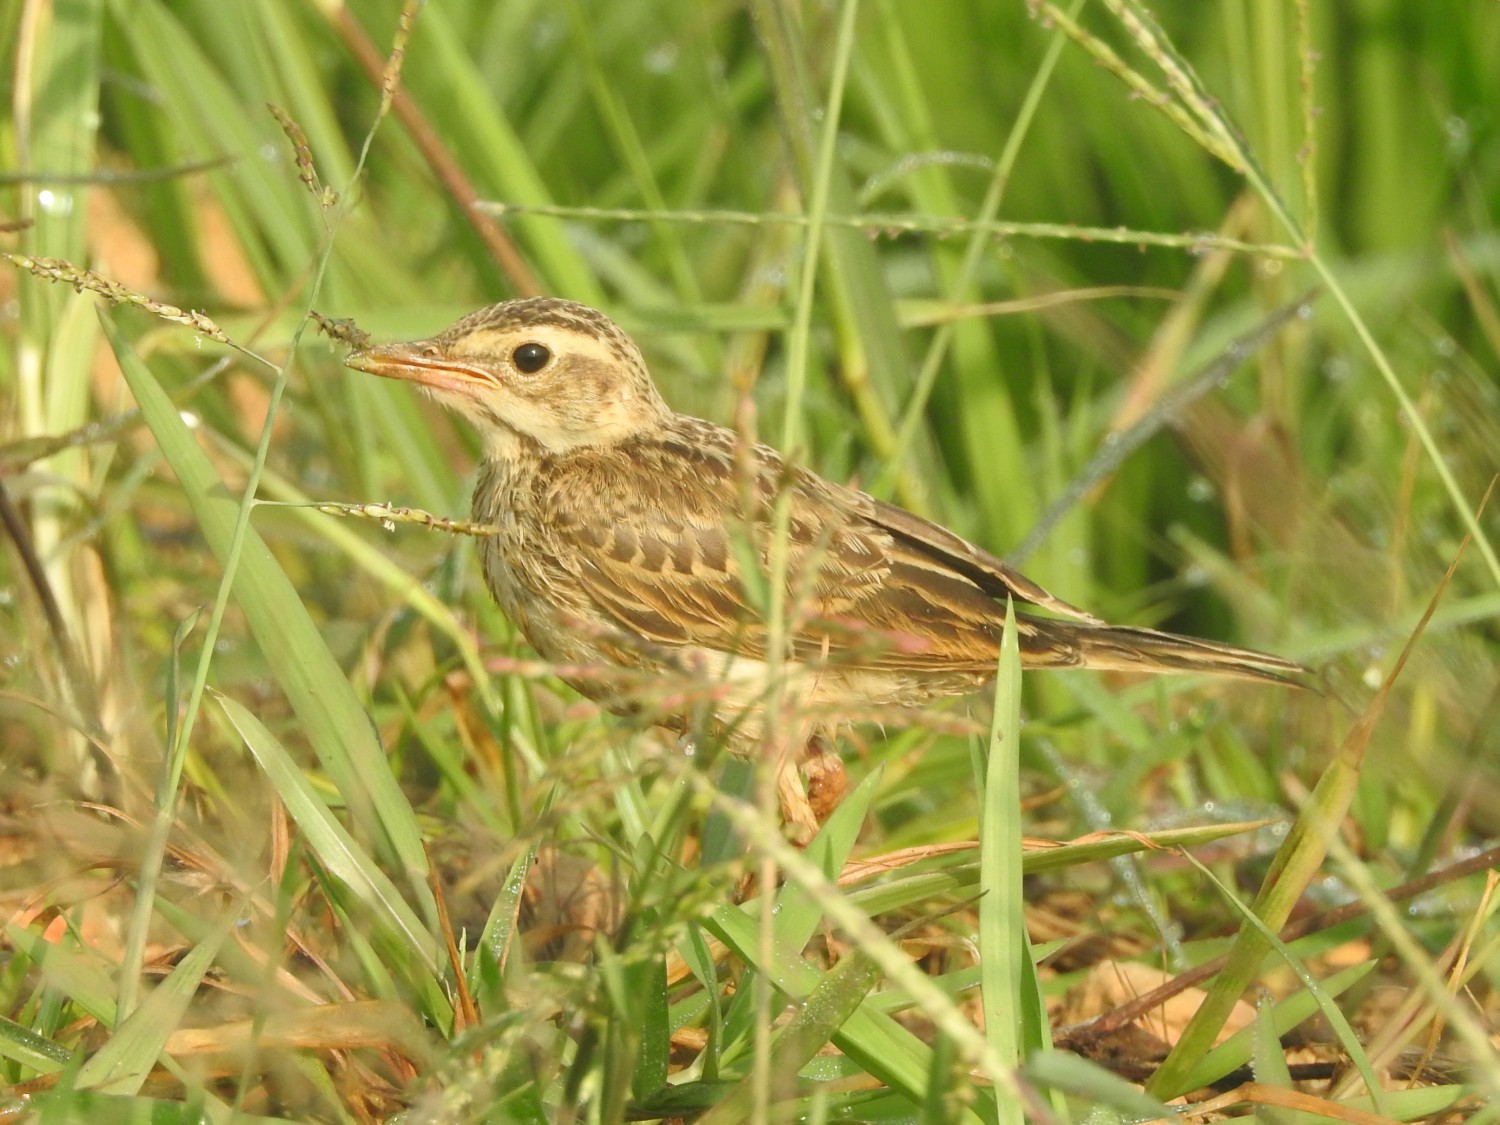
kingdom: Animalia
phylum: Chordata
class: Aves
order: Passeriformes
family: Motacillidae
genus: Anthus
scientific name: Anthus rufulus
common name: Paddyfield pipit
